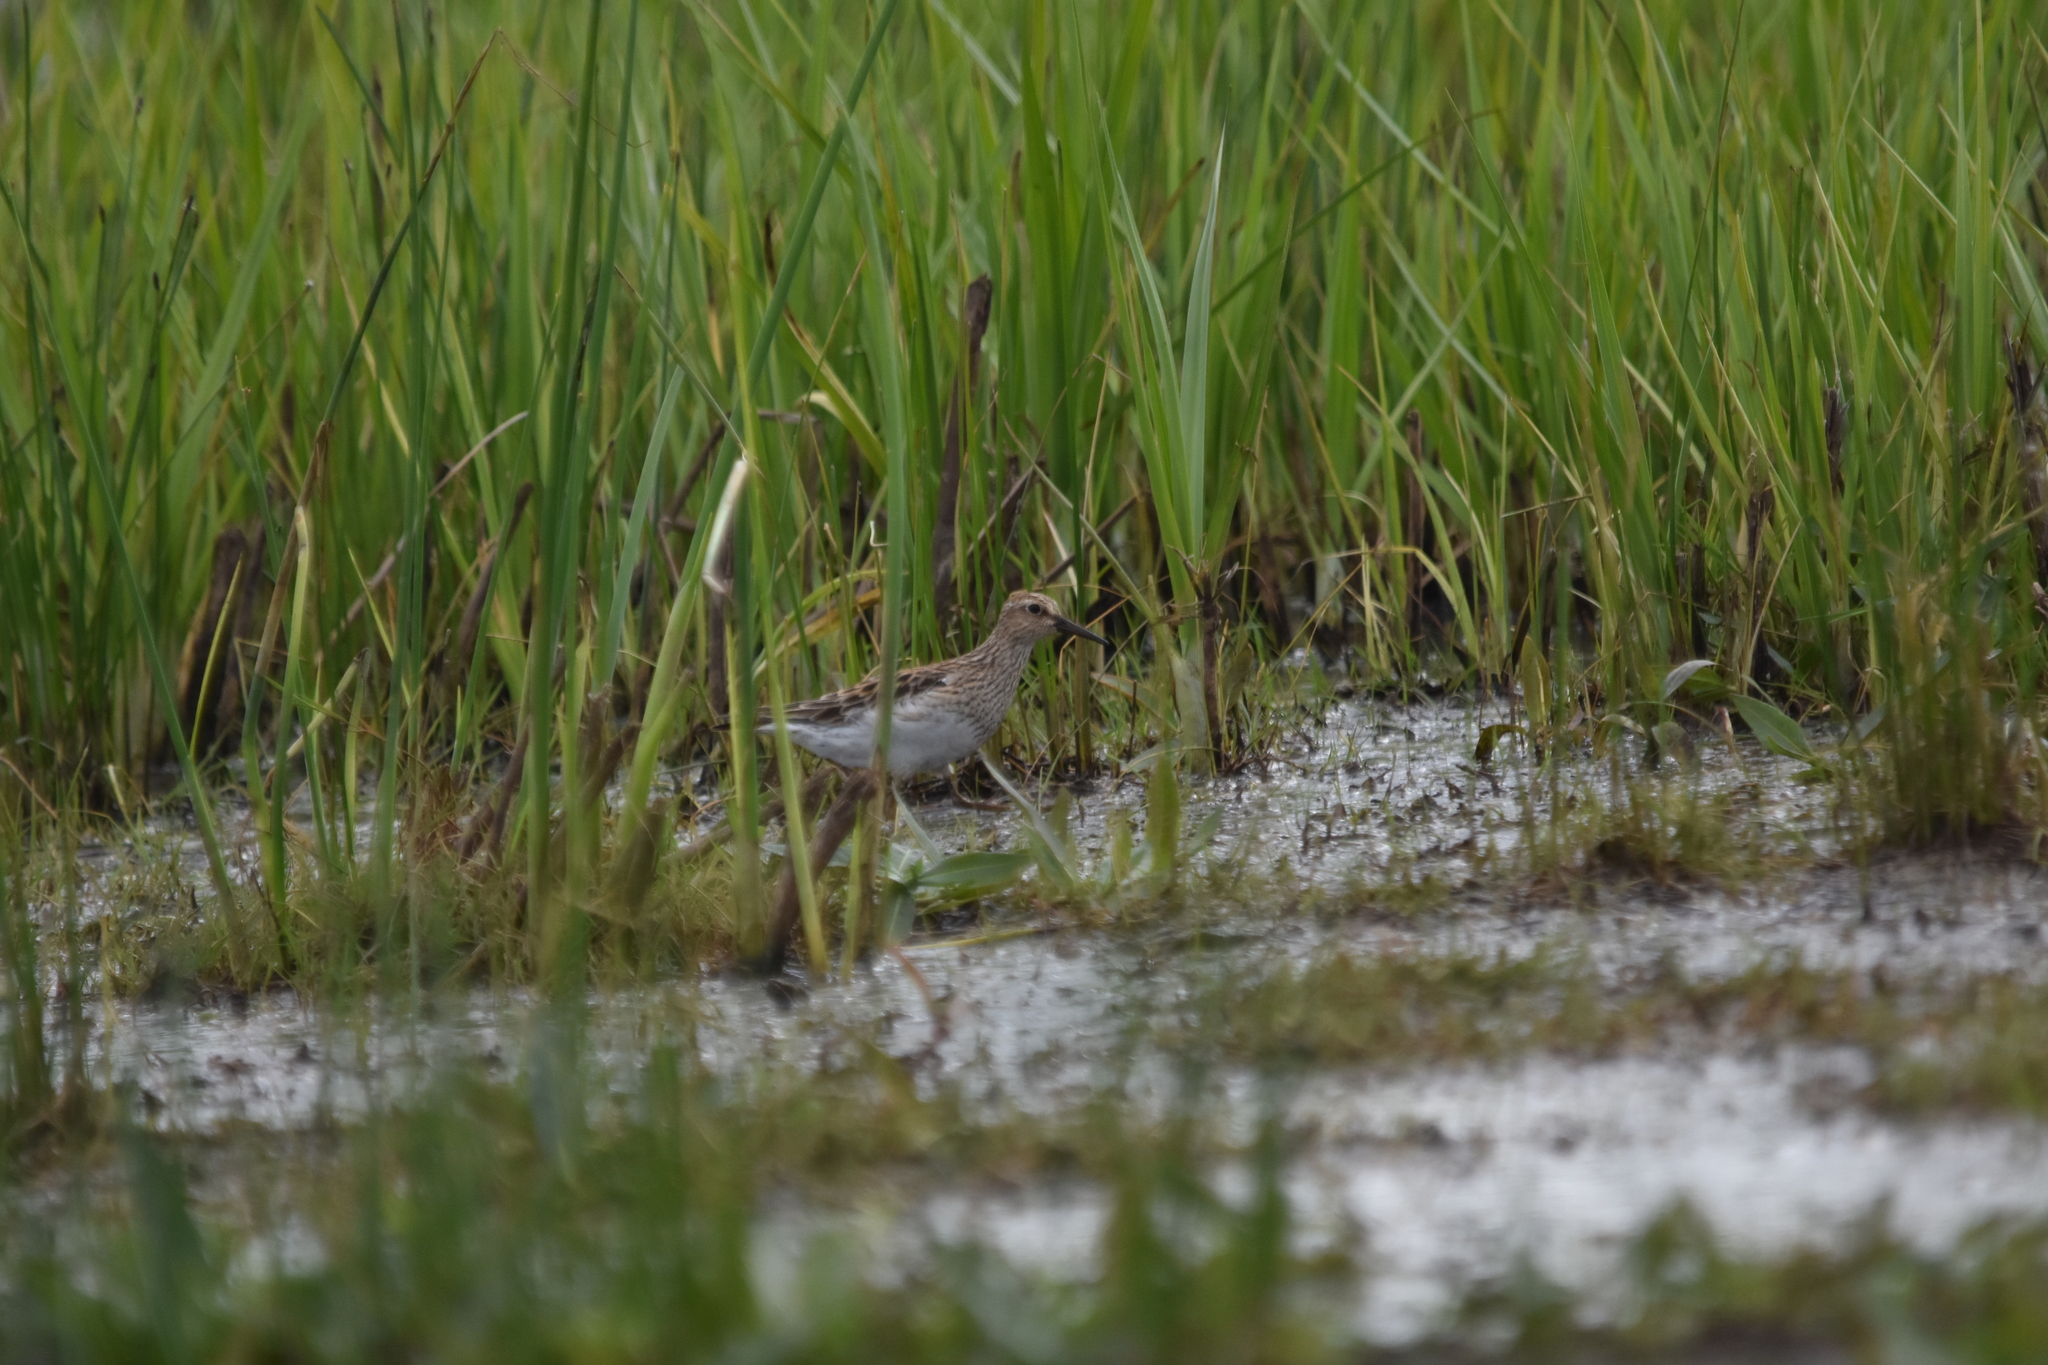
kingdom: Animalia
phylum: Chordata
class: Aves
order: Charadriiformes
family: Scolopacidae
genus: Calidris
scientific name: Calidris melanotos
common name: Pectoral sandpiper
